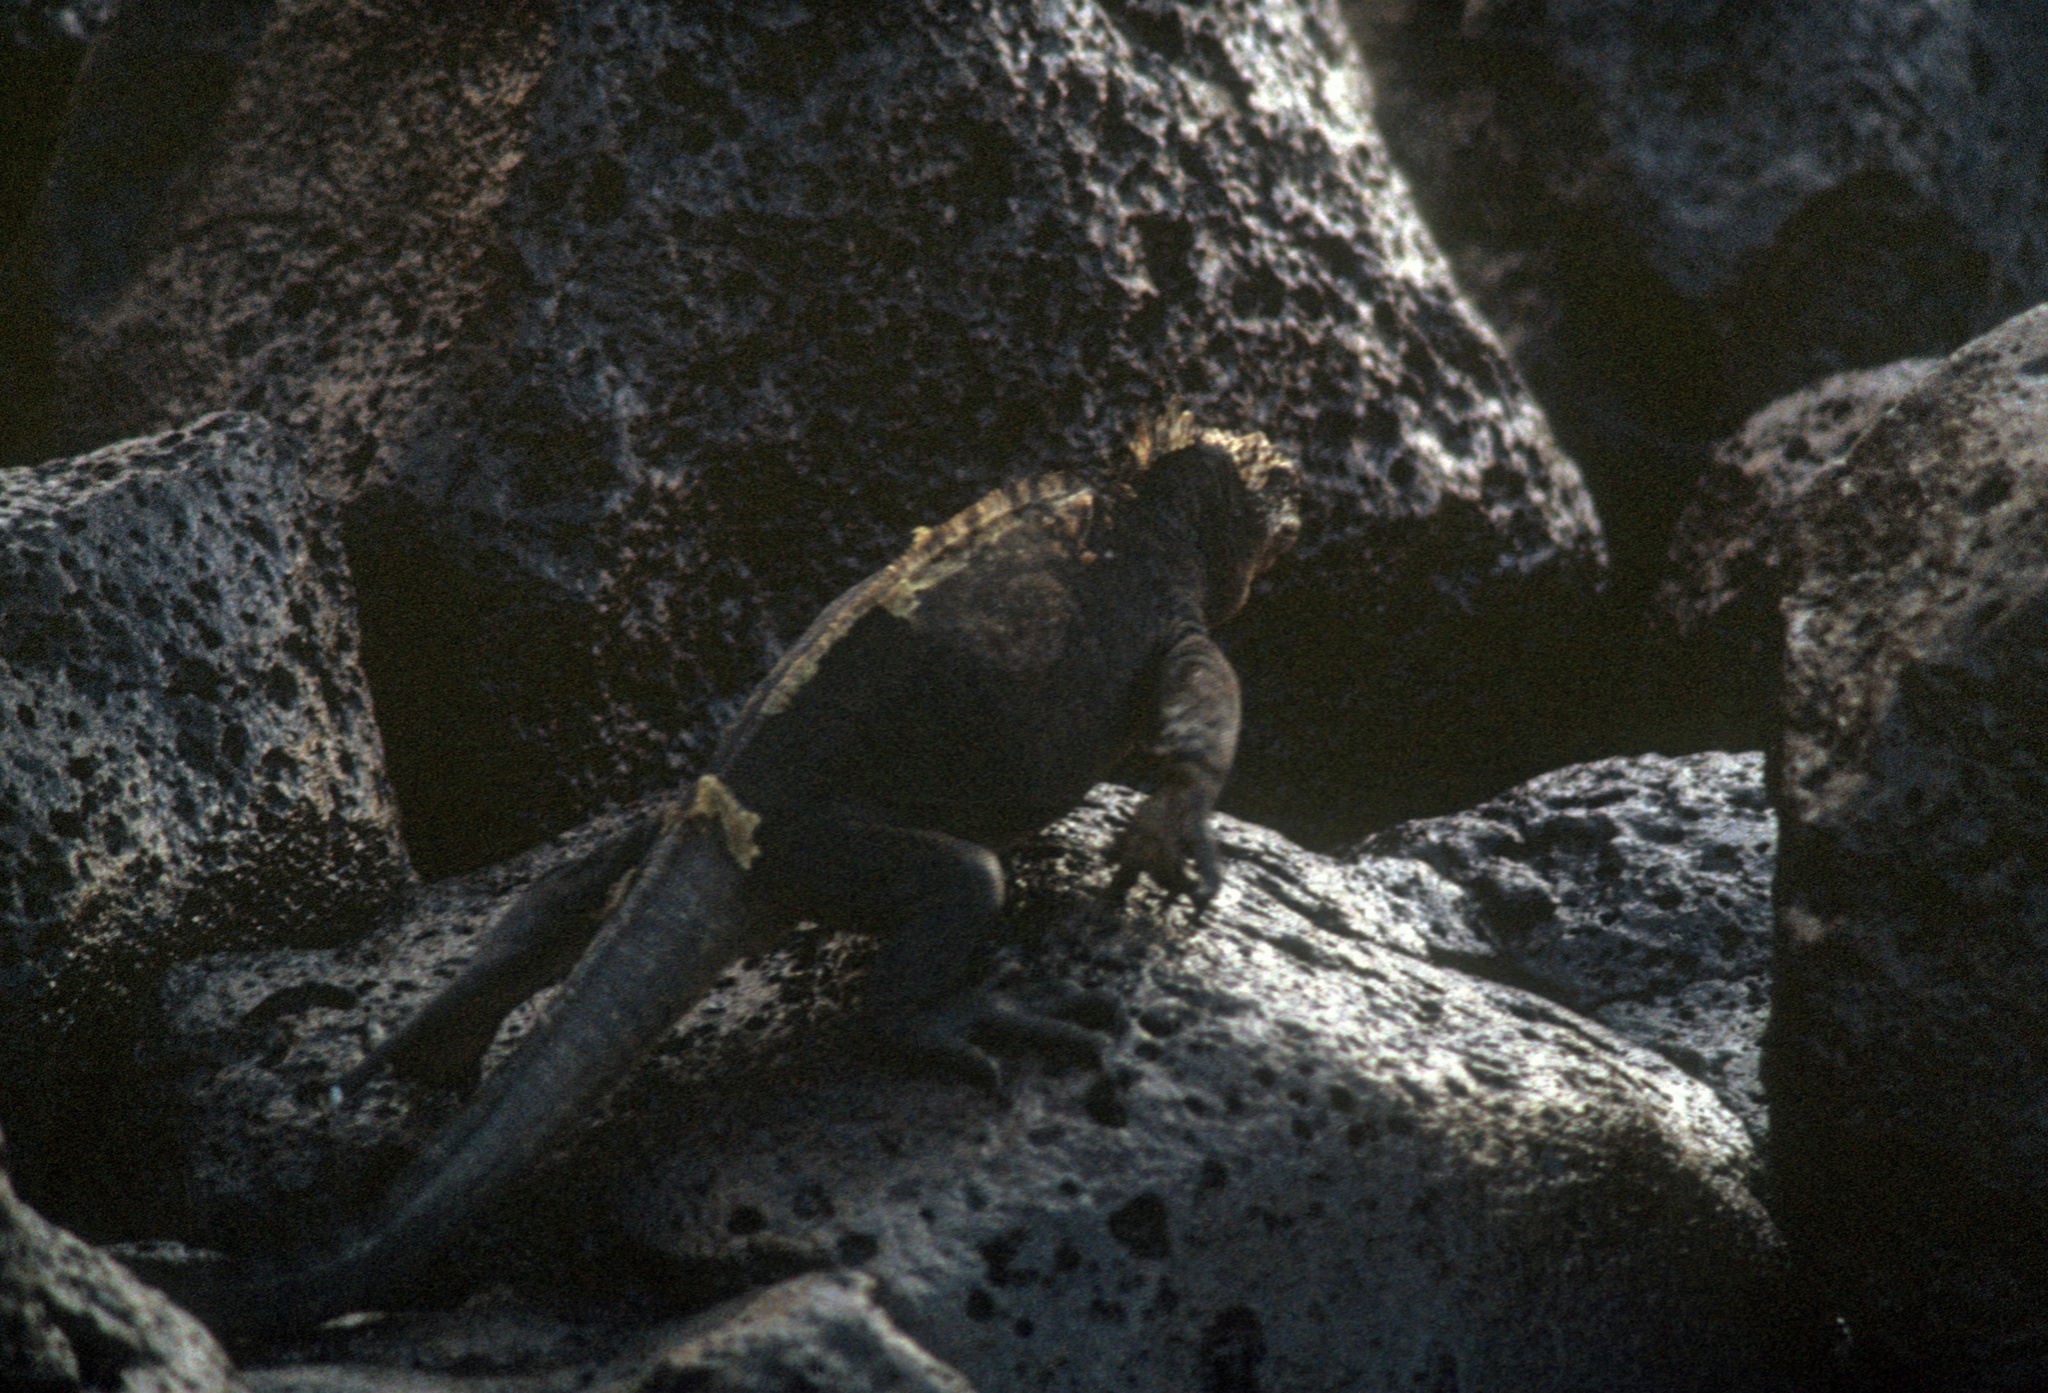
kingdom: Animalia
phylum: Chordata
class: Squamata
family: Iguanidae
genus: Amblyrhynchus
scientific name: Amblyrhynchus cristatus
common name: Marine iguana
